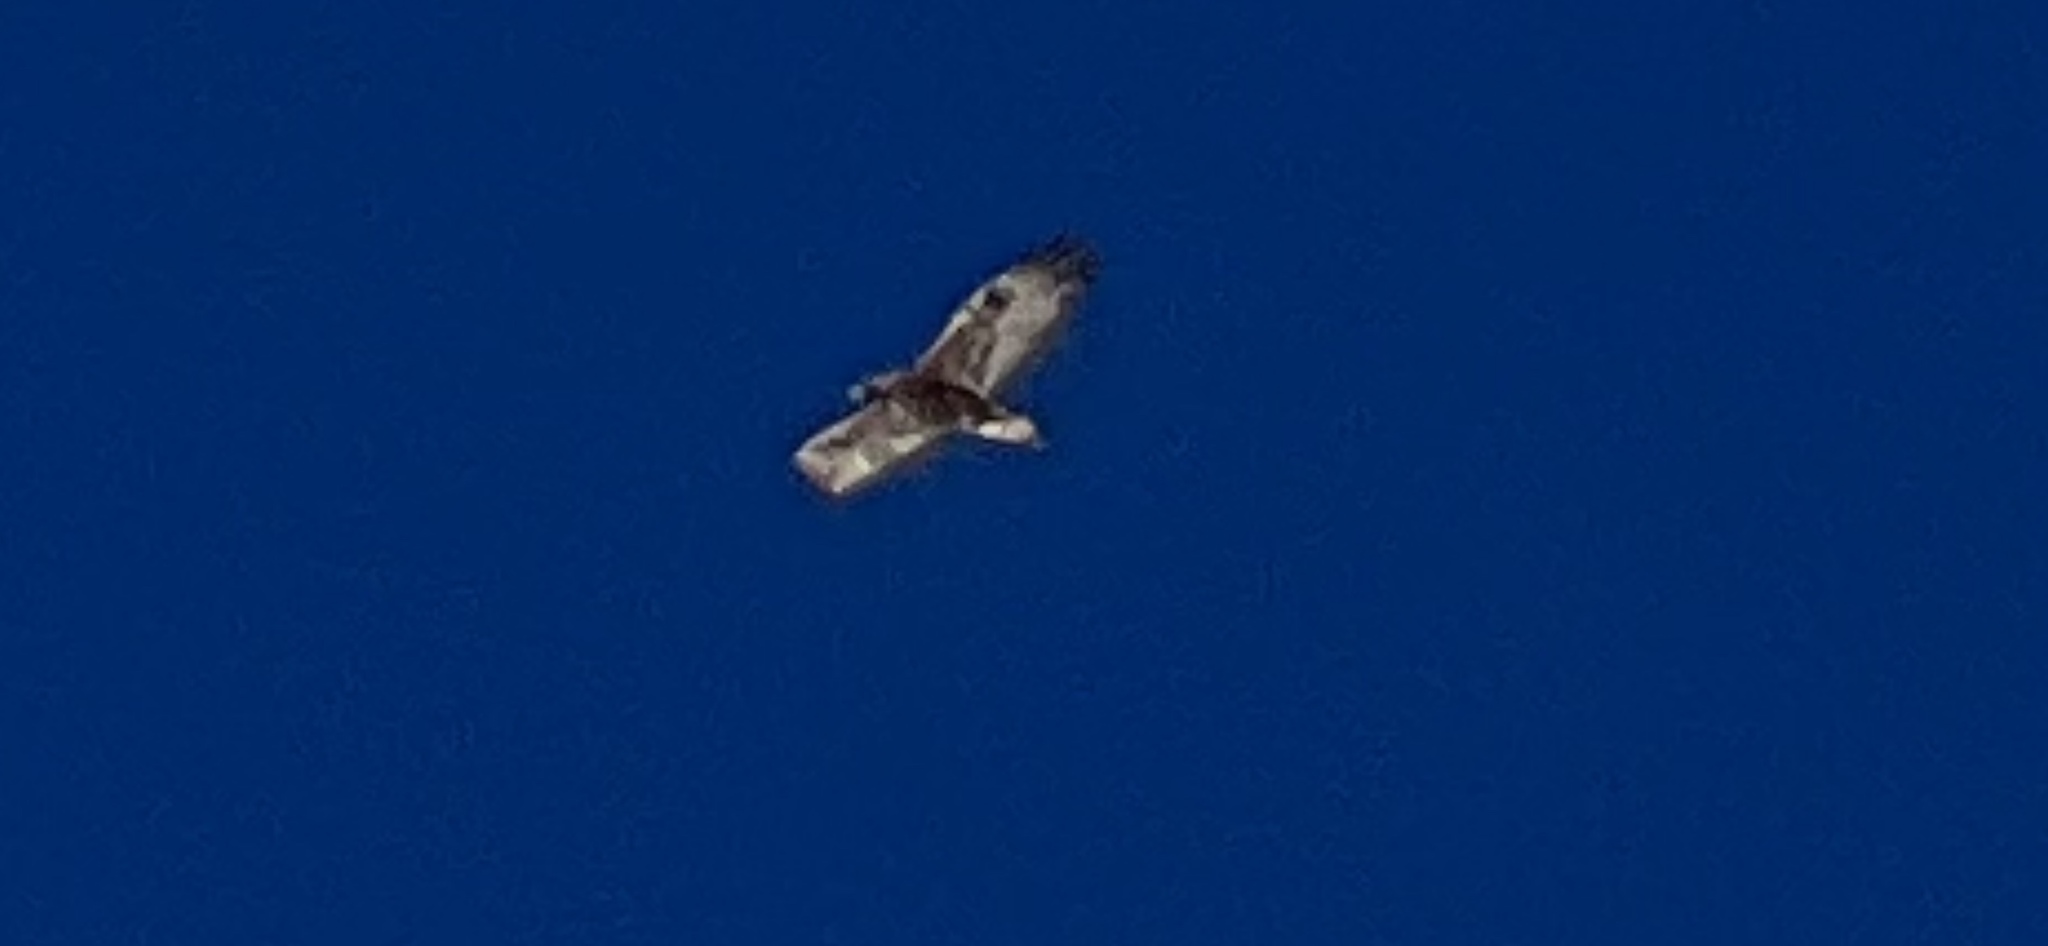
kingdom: Animalia
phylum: Chordata
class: Aves
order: Accipitriformes
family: Accipitridae
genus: Aquila
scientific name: Aquila chrysaetos
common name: Golden eagle
